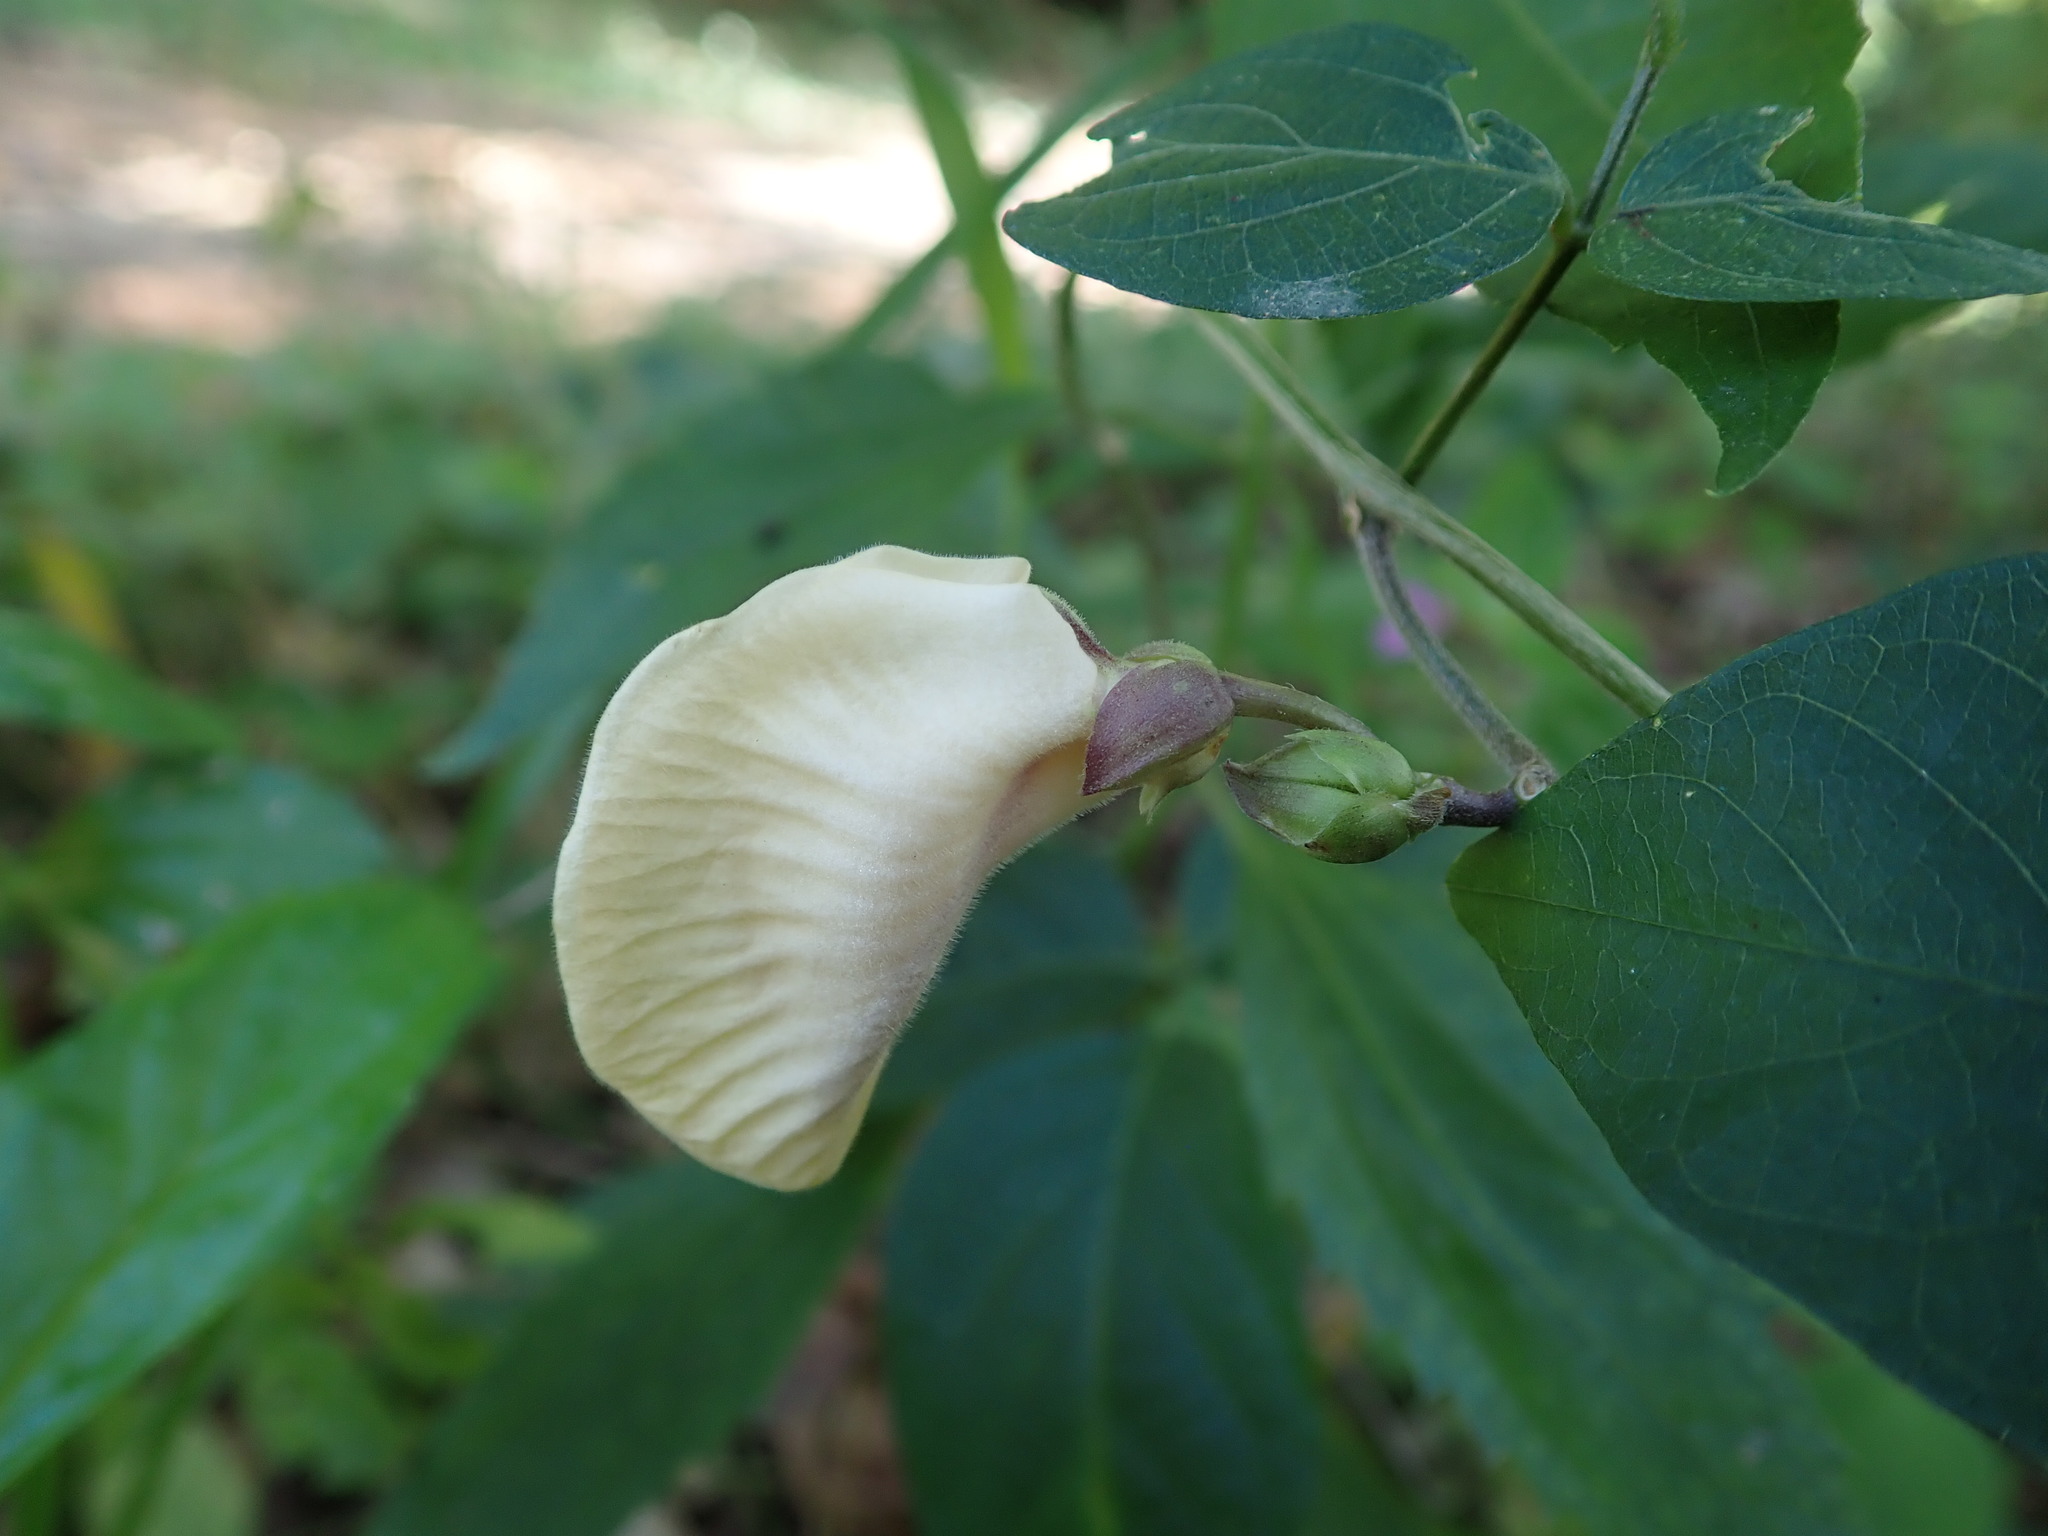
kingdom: Plantae
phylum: Tracheophyta
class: Magnoliopsida
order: Fabales
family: Fabaceae
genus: Centrosema
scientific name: Centrosema pubescens
